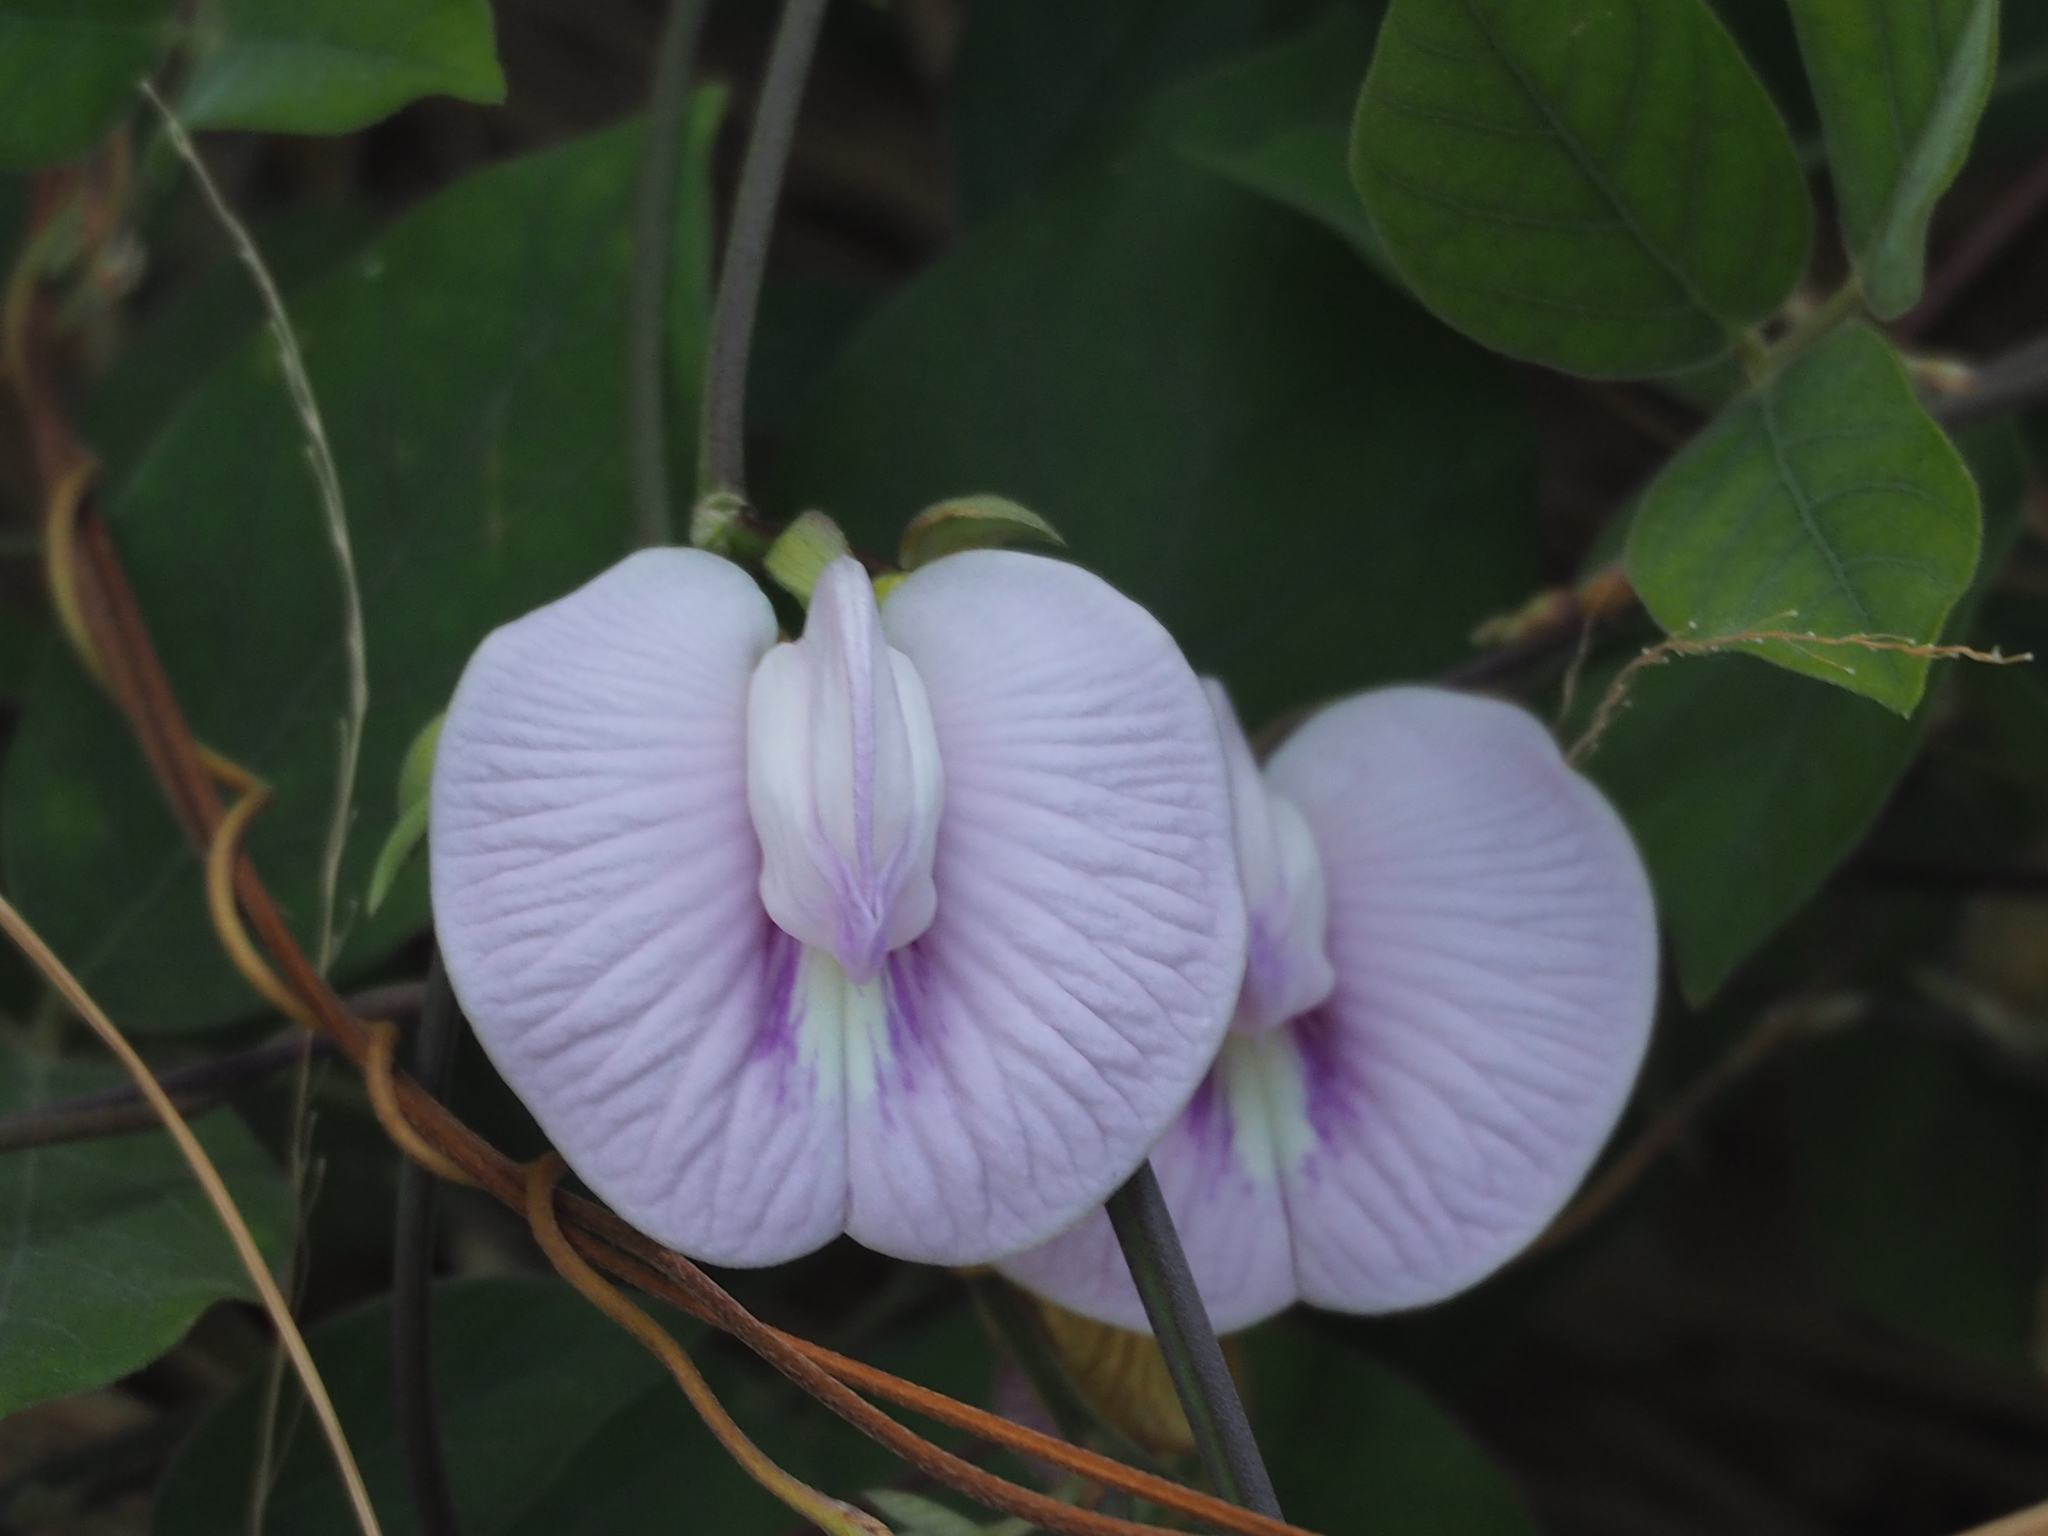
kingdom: Plantae
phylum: Tracheophyta
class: Magnoliopsida
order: Fabales
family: Fabaceae
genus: Centrosema
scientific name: Centrosema pubescens
